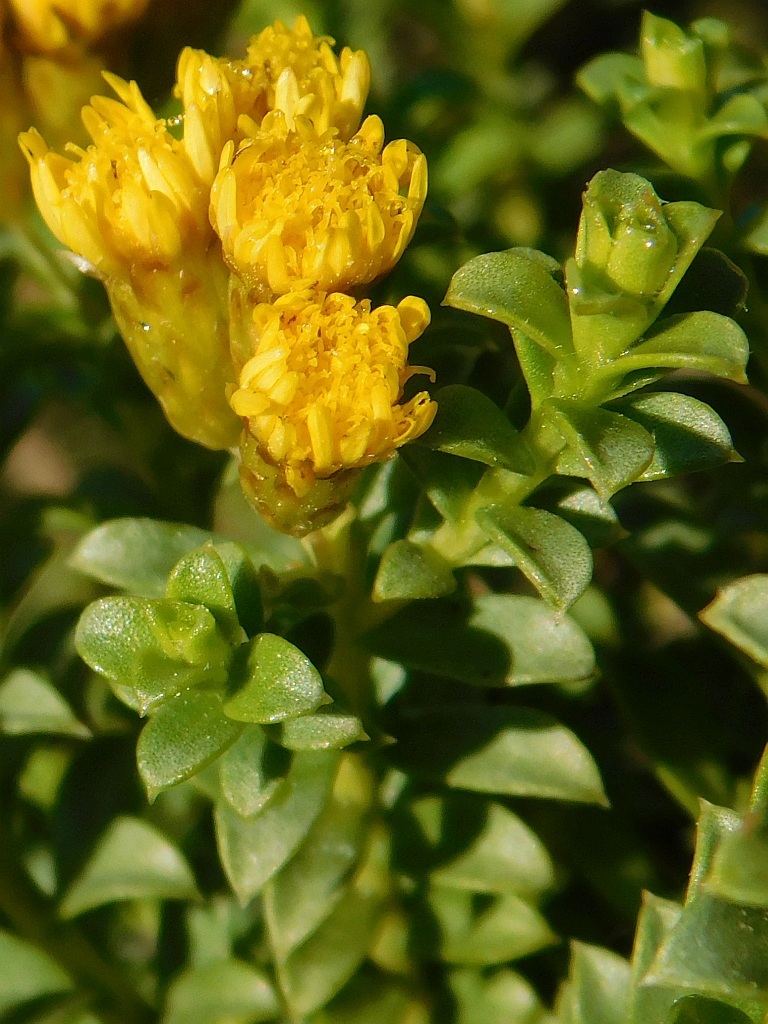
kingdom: Plantae
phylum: Tracheophyta
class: Magnoliopsida
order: Asterales
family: Asteraceae
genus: Oedera
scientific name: Oedera squarrosa
